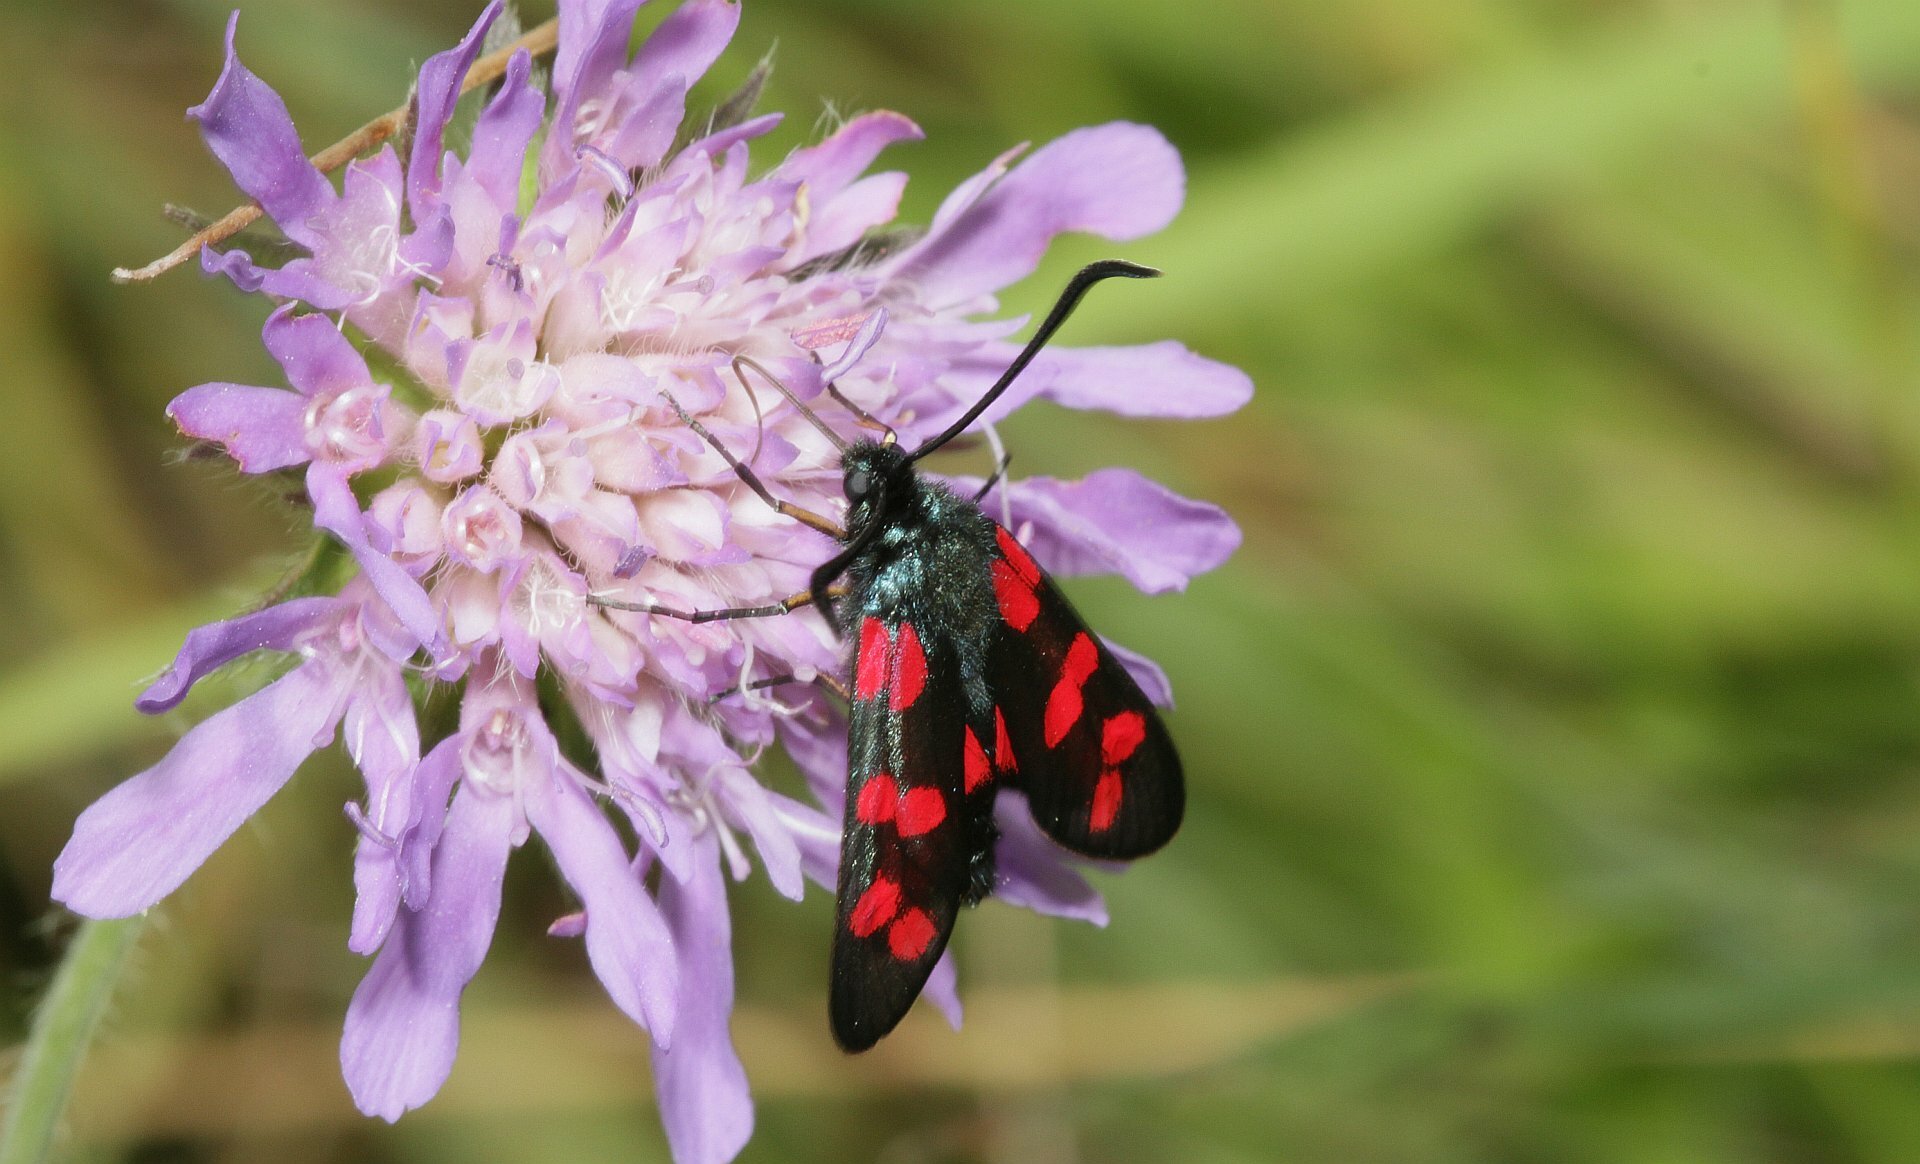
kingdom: Animalia
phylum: Arthropoda
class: Insecta
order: Lepidoptera
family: Zygaenidae
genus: Zygaena
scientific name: Zygaena filipendulae
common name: Six-spot burnet
